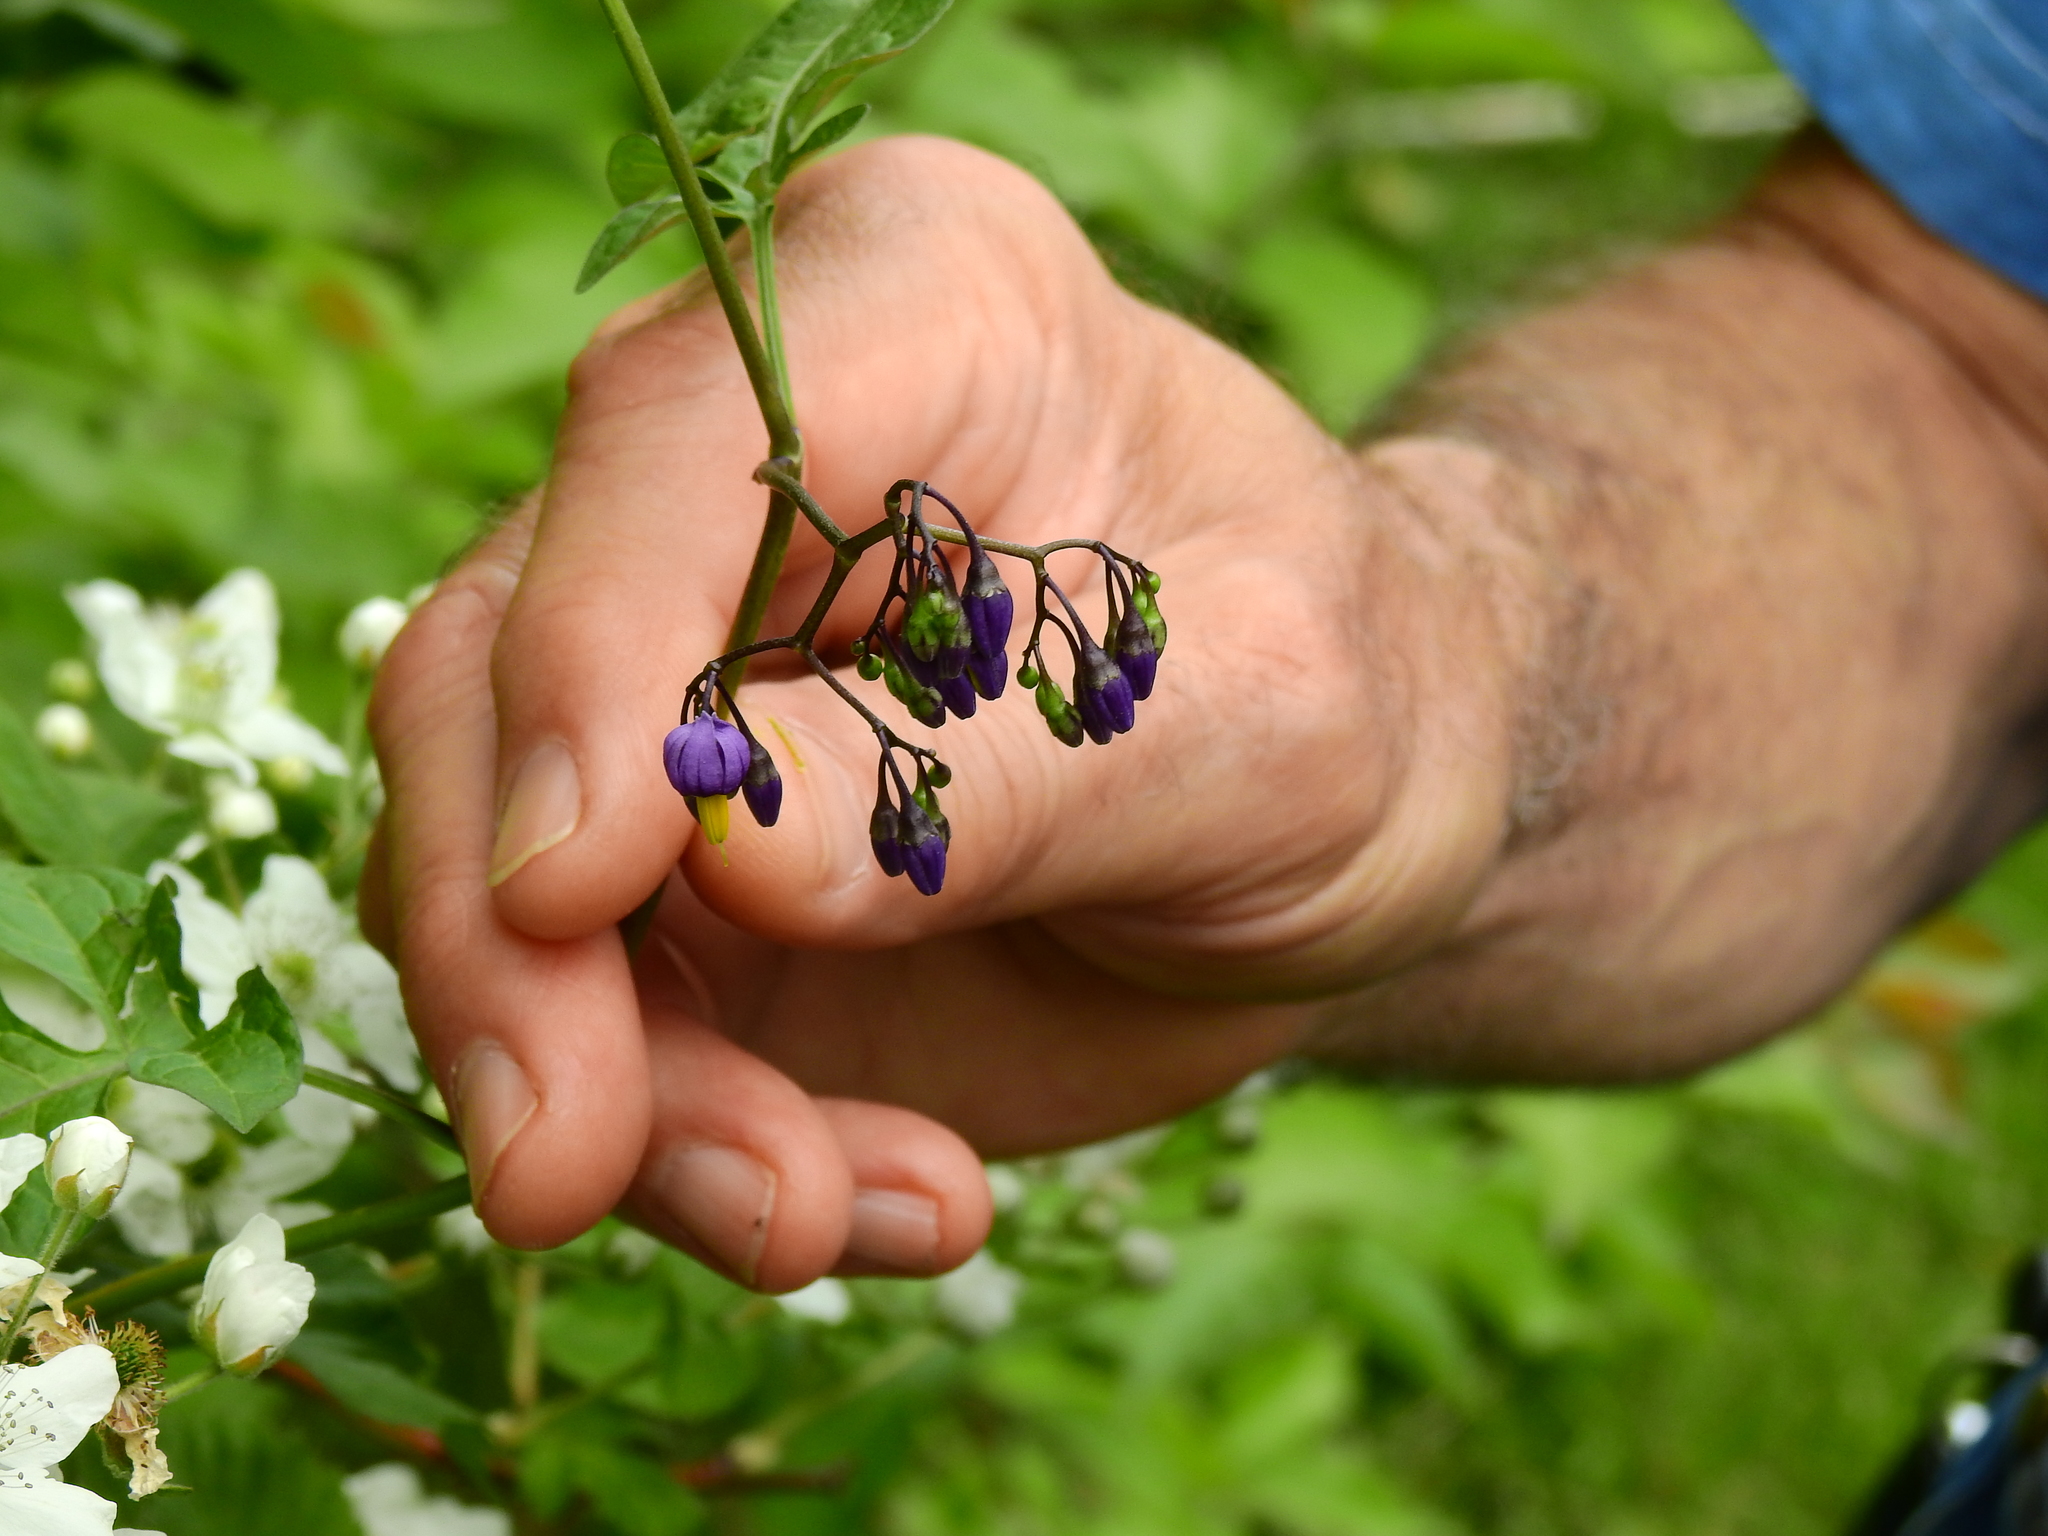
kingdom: Plantae
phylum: Tracheophyta
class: Magnoliopsida
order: Solanales
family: Solanaceae
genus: Solanum
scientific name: Solanum dulcamara
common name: Climbing nightshade
